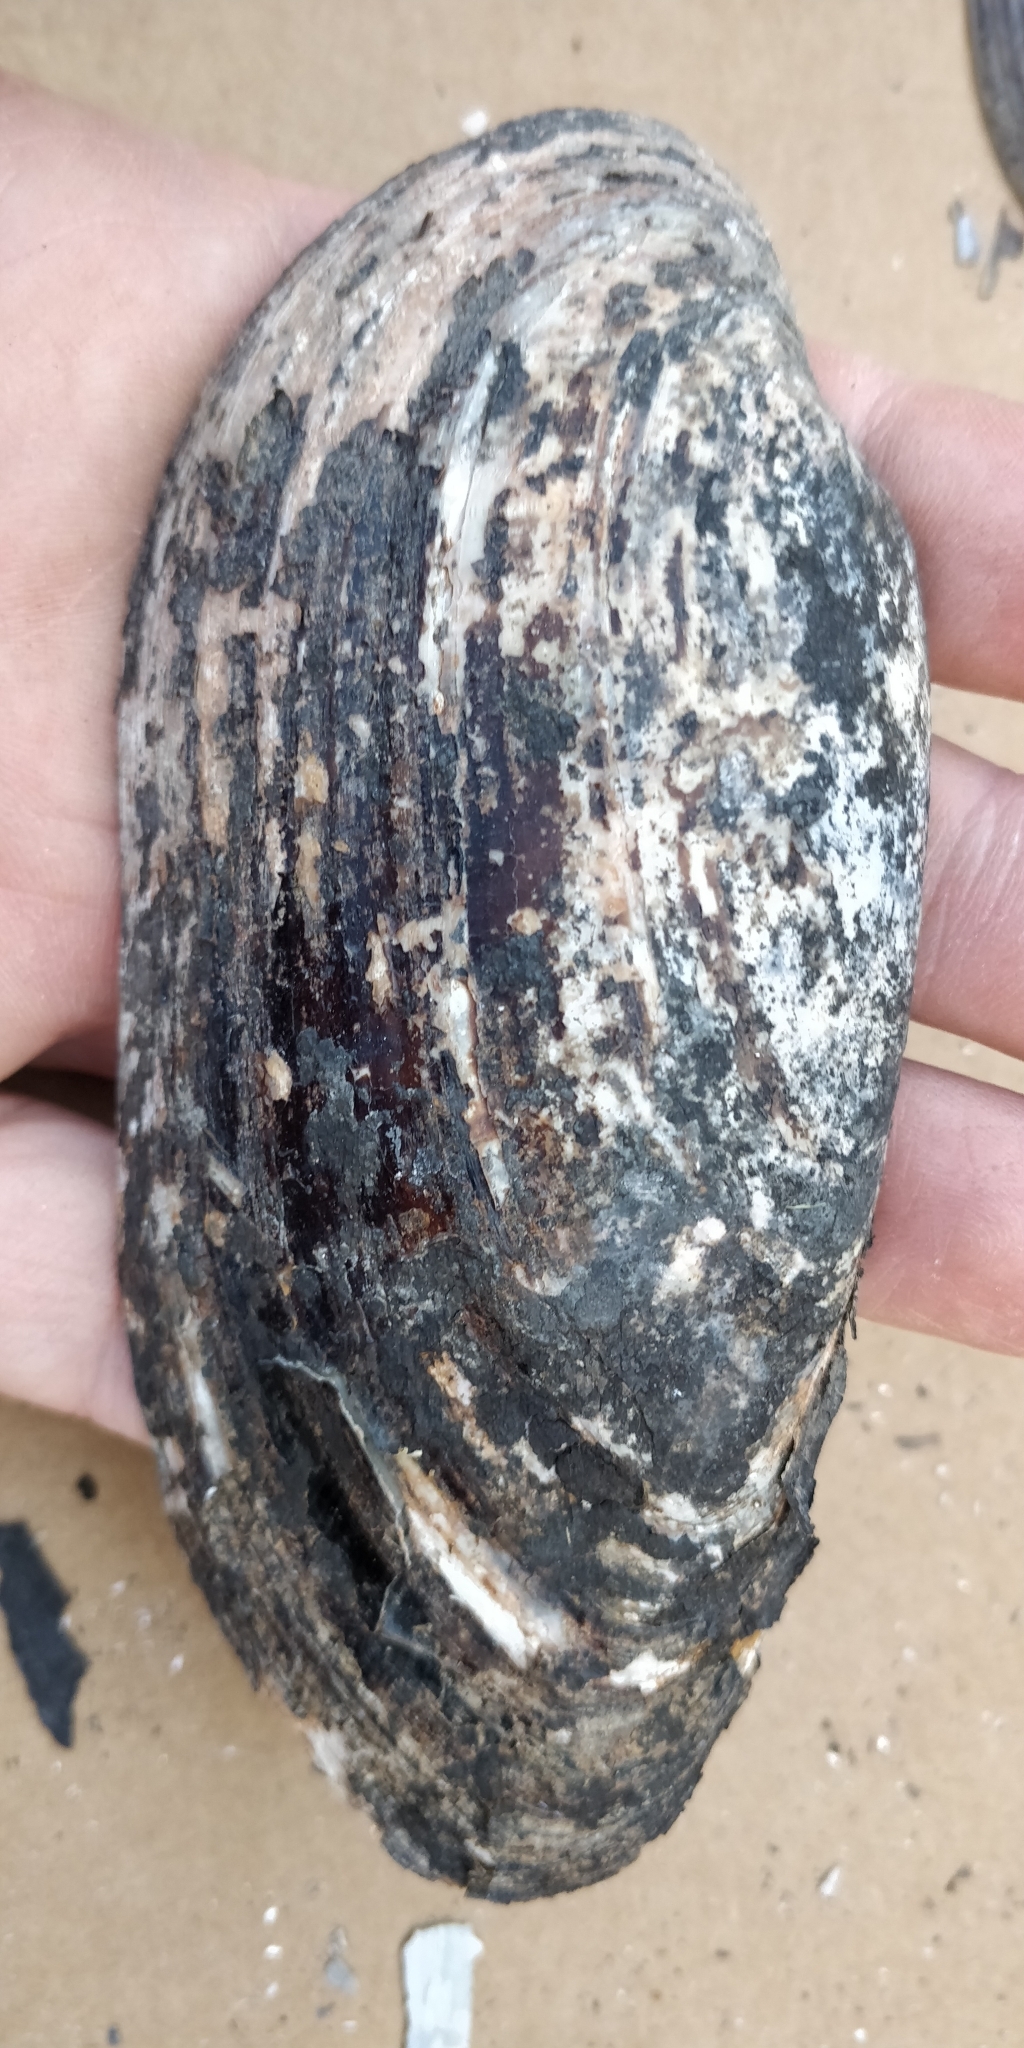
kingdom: Animalia
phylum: Mollusca
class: Bivalvia
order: Unionida
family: Unionidae
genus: Ligumia
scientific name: Ligumia recta
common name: Black sandshell
